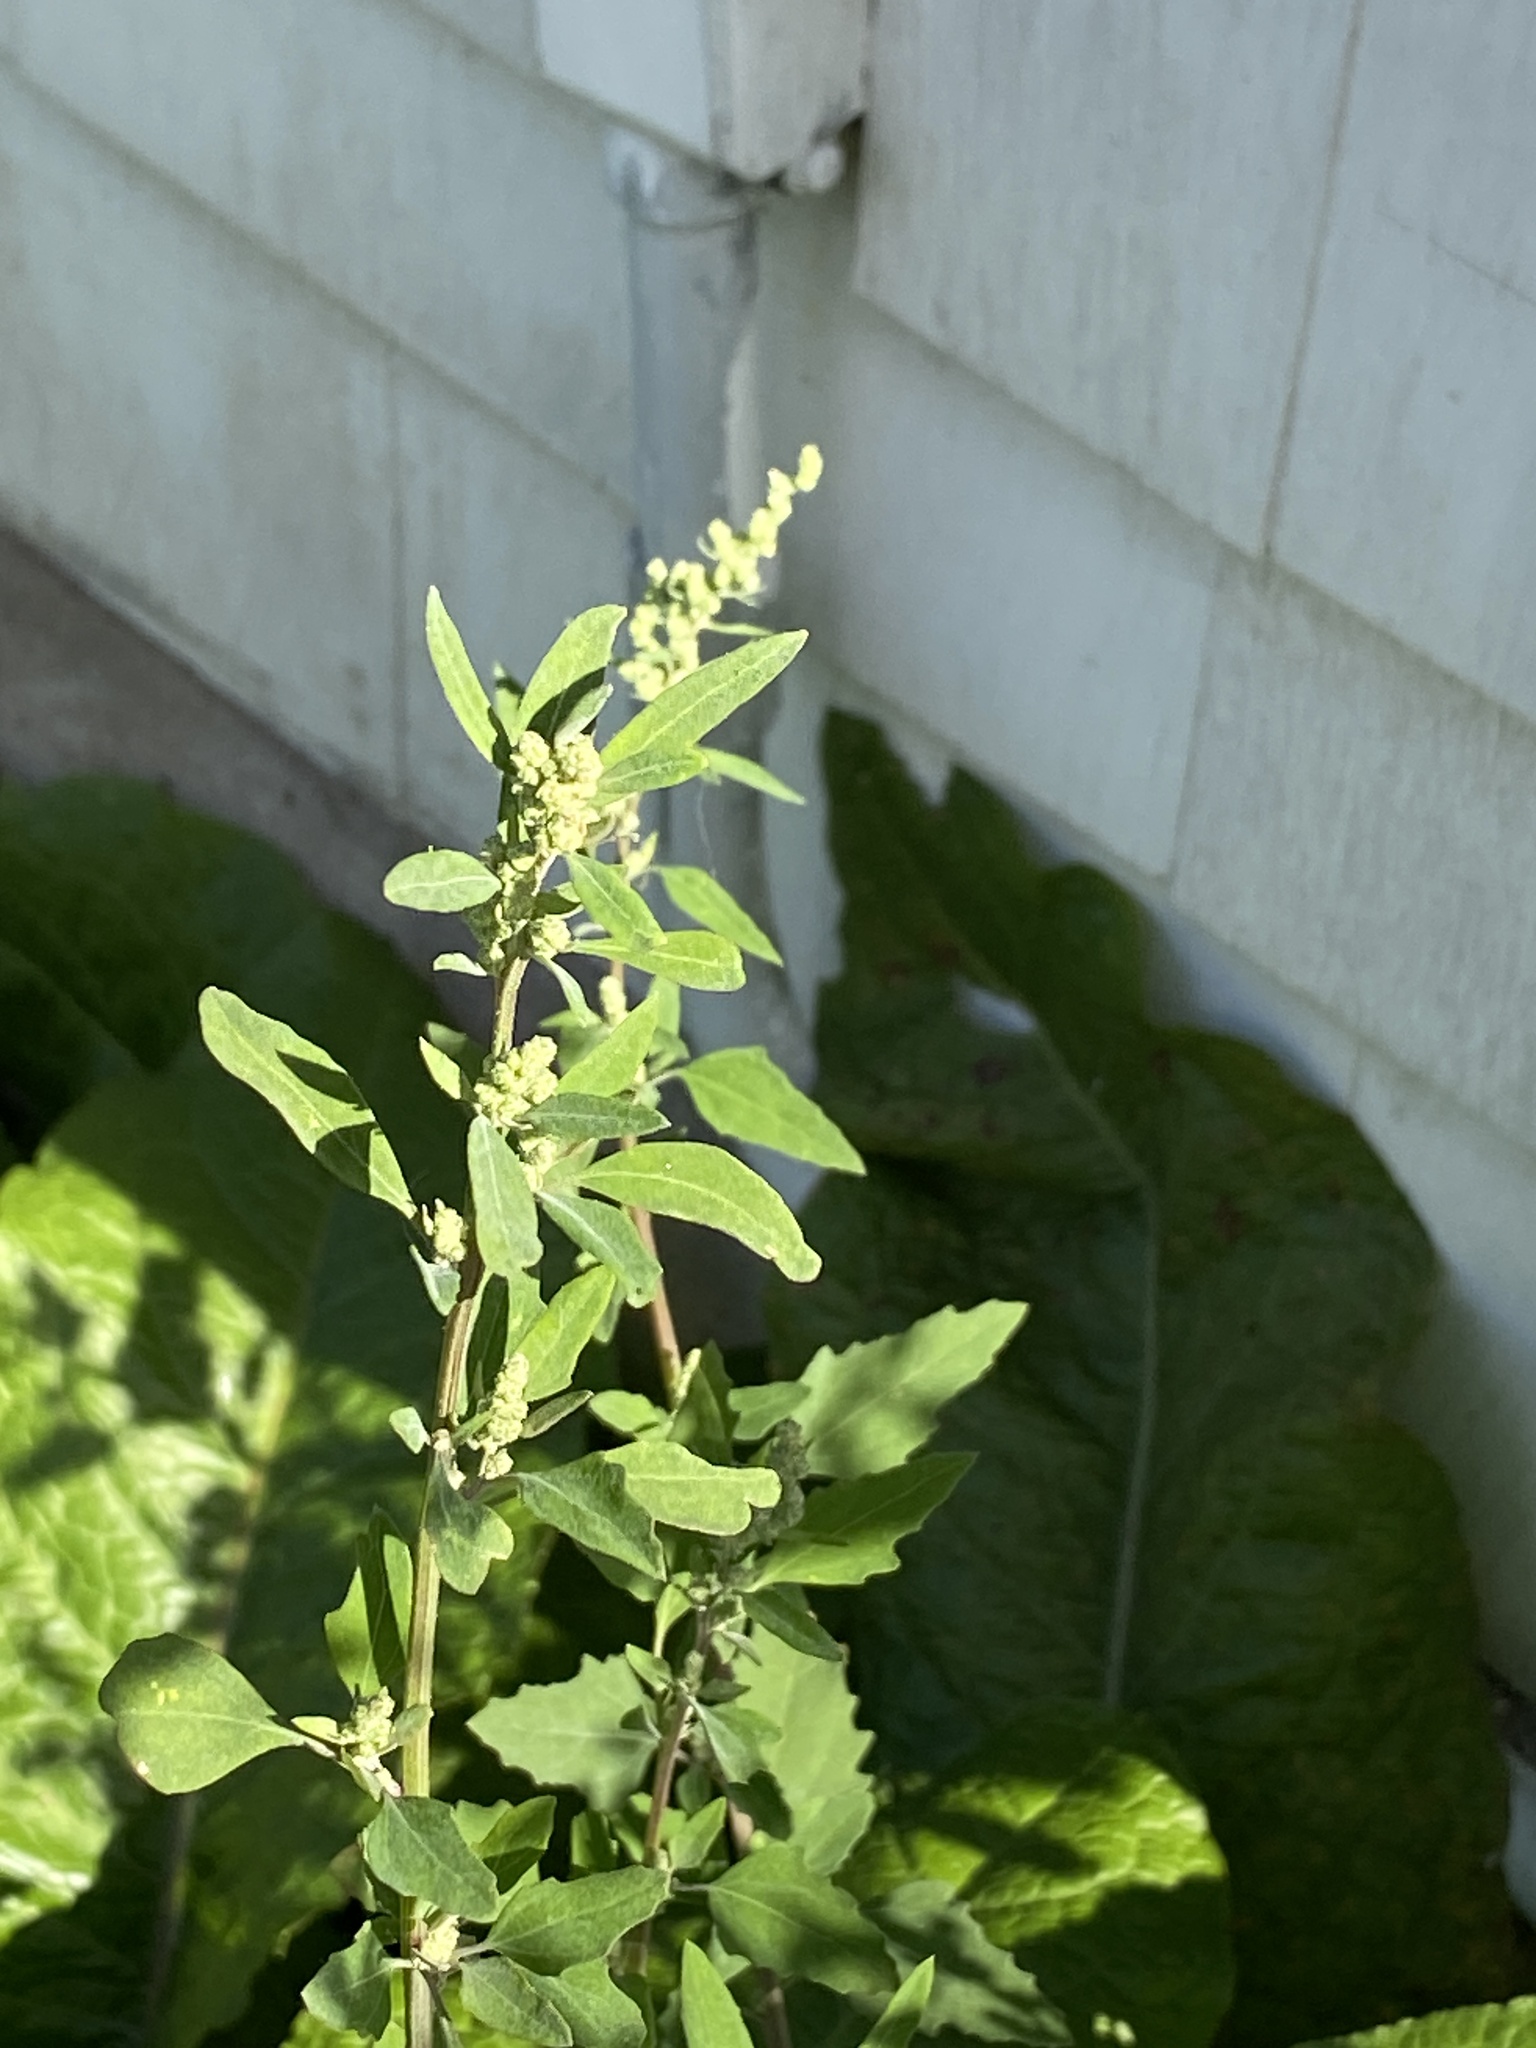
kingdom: Plantae
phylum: Tracheophyta
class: Magnoliopsida
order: Caryophyllales
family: Amaranthaceae
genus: Chenopodium
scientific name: Chenopodium album
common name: Fat-hen
